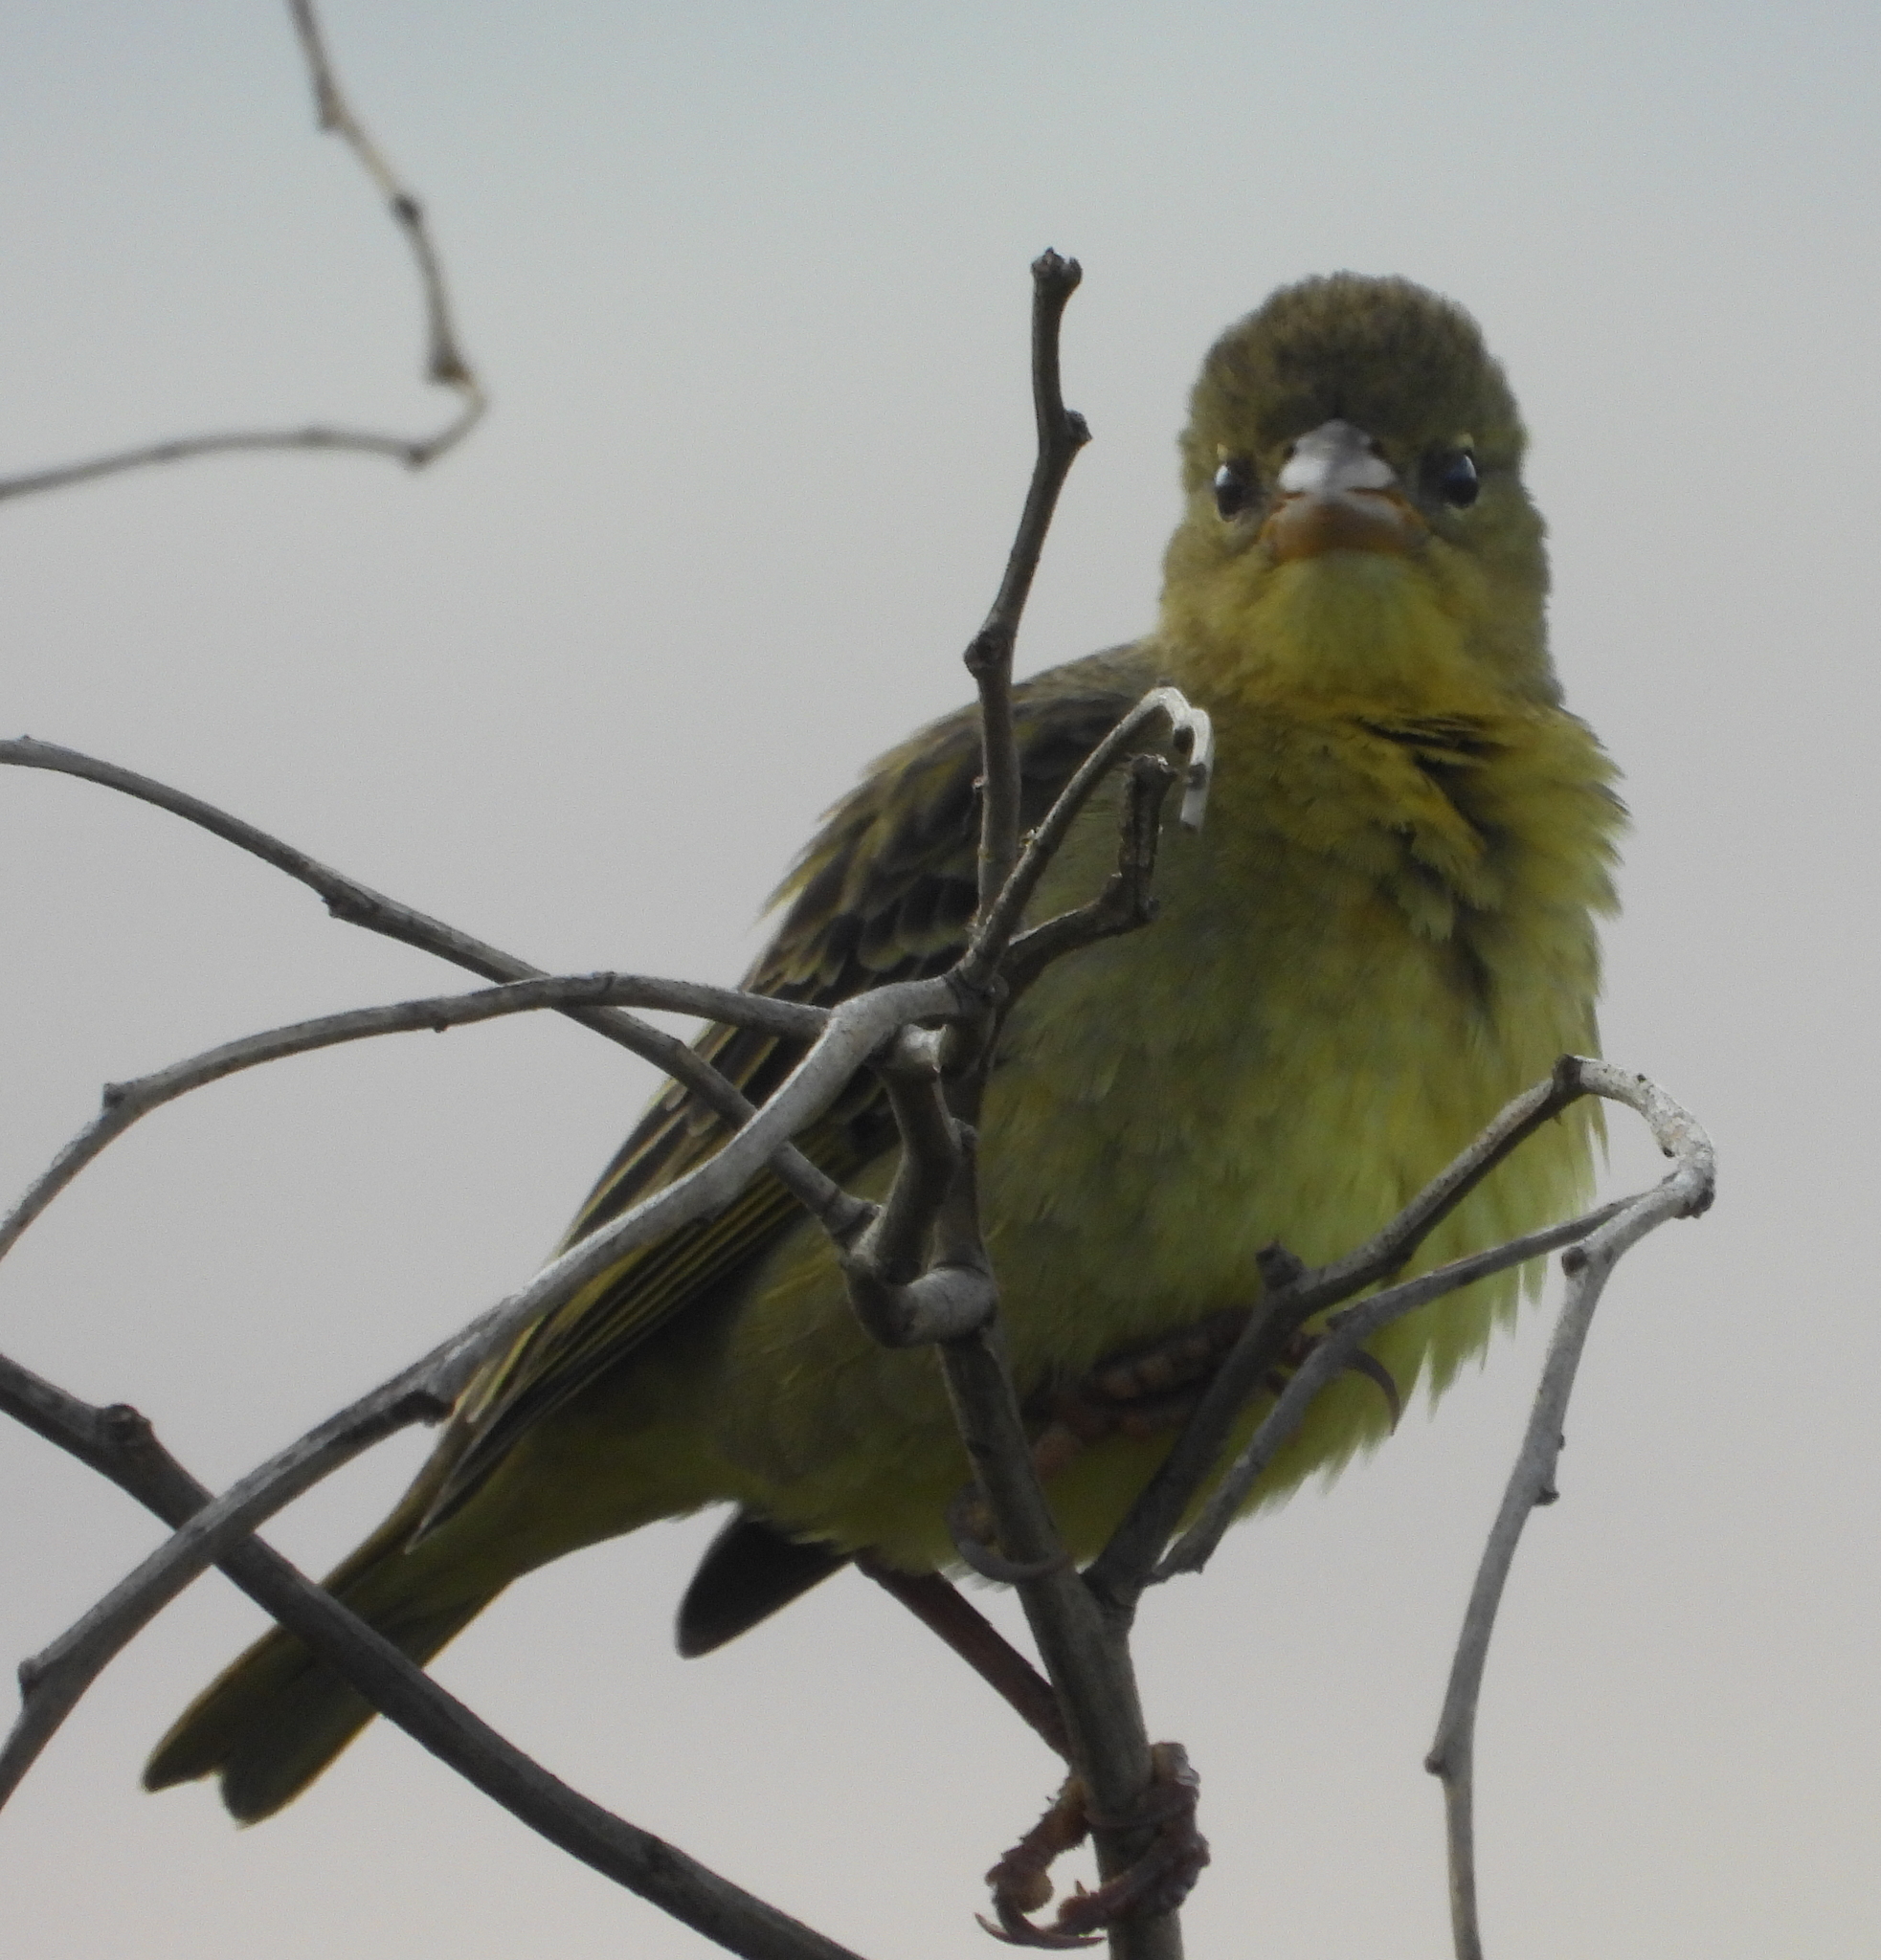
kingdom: Animalia
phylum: Chordata
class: Aves
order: Passeriformes
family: Ploceidae
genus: Ploceus
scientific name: Ploceus capensis
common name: Cape weaver
